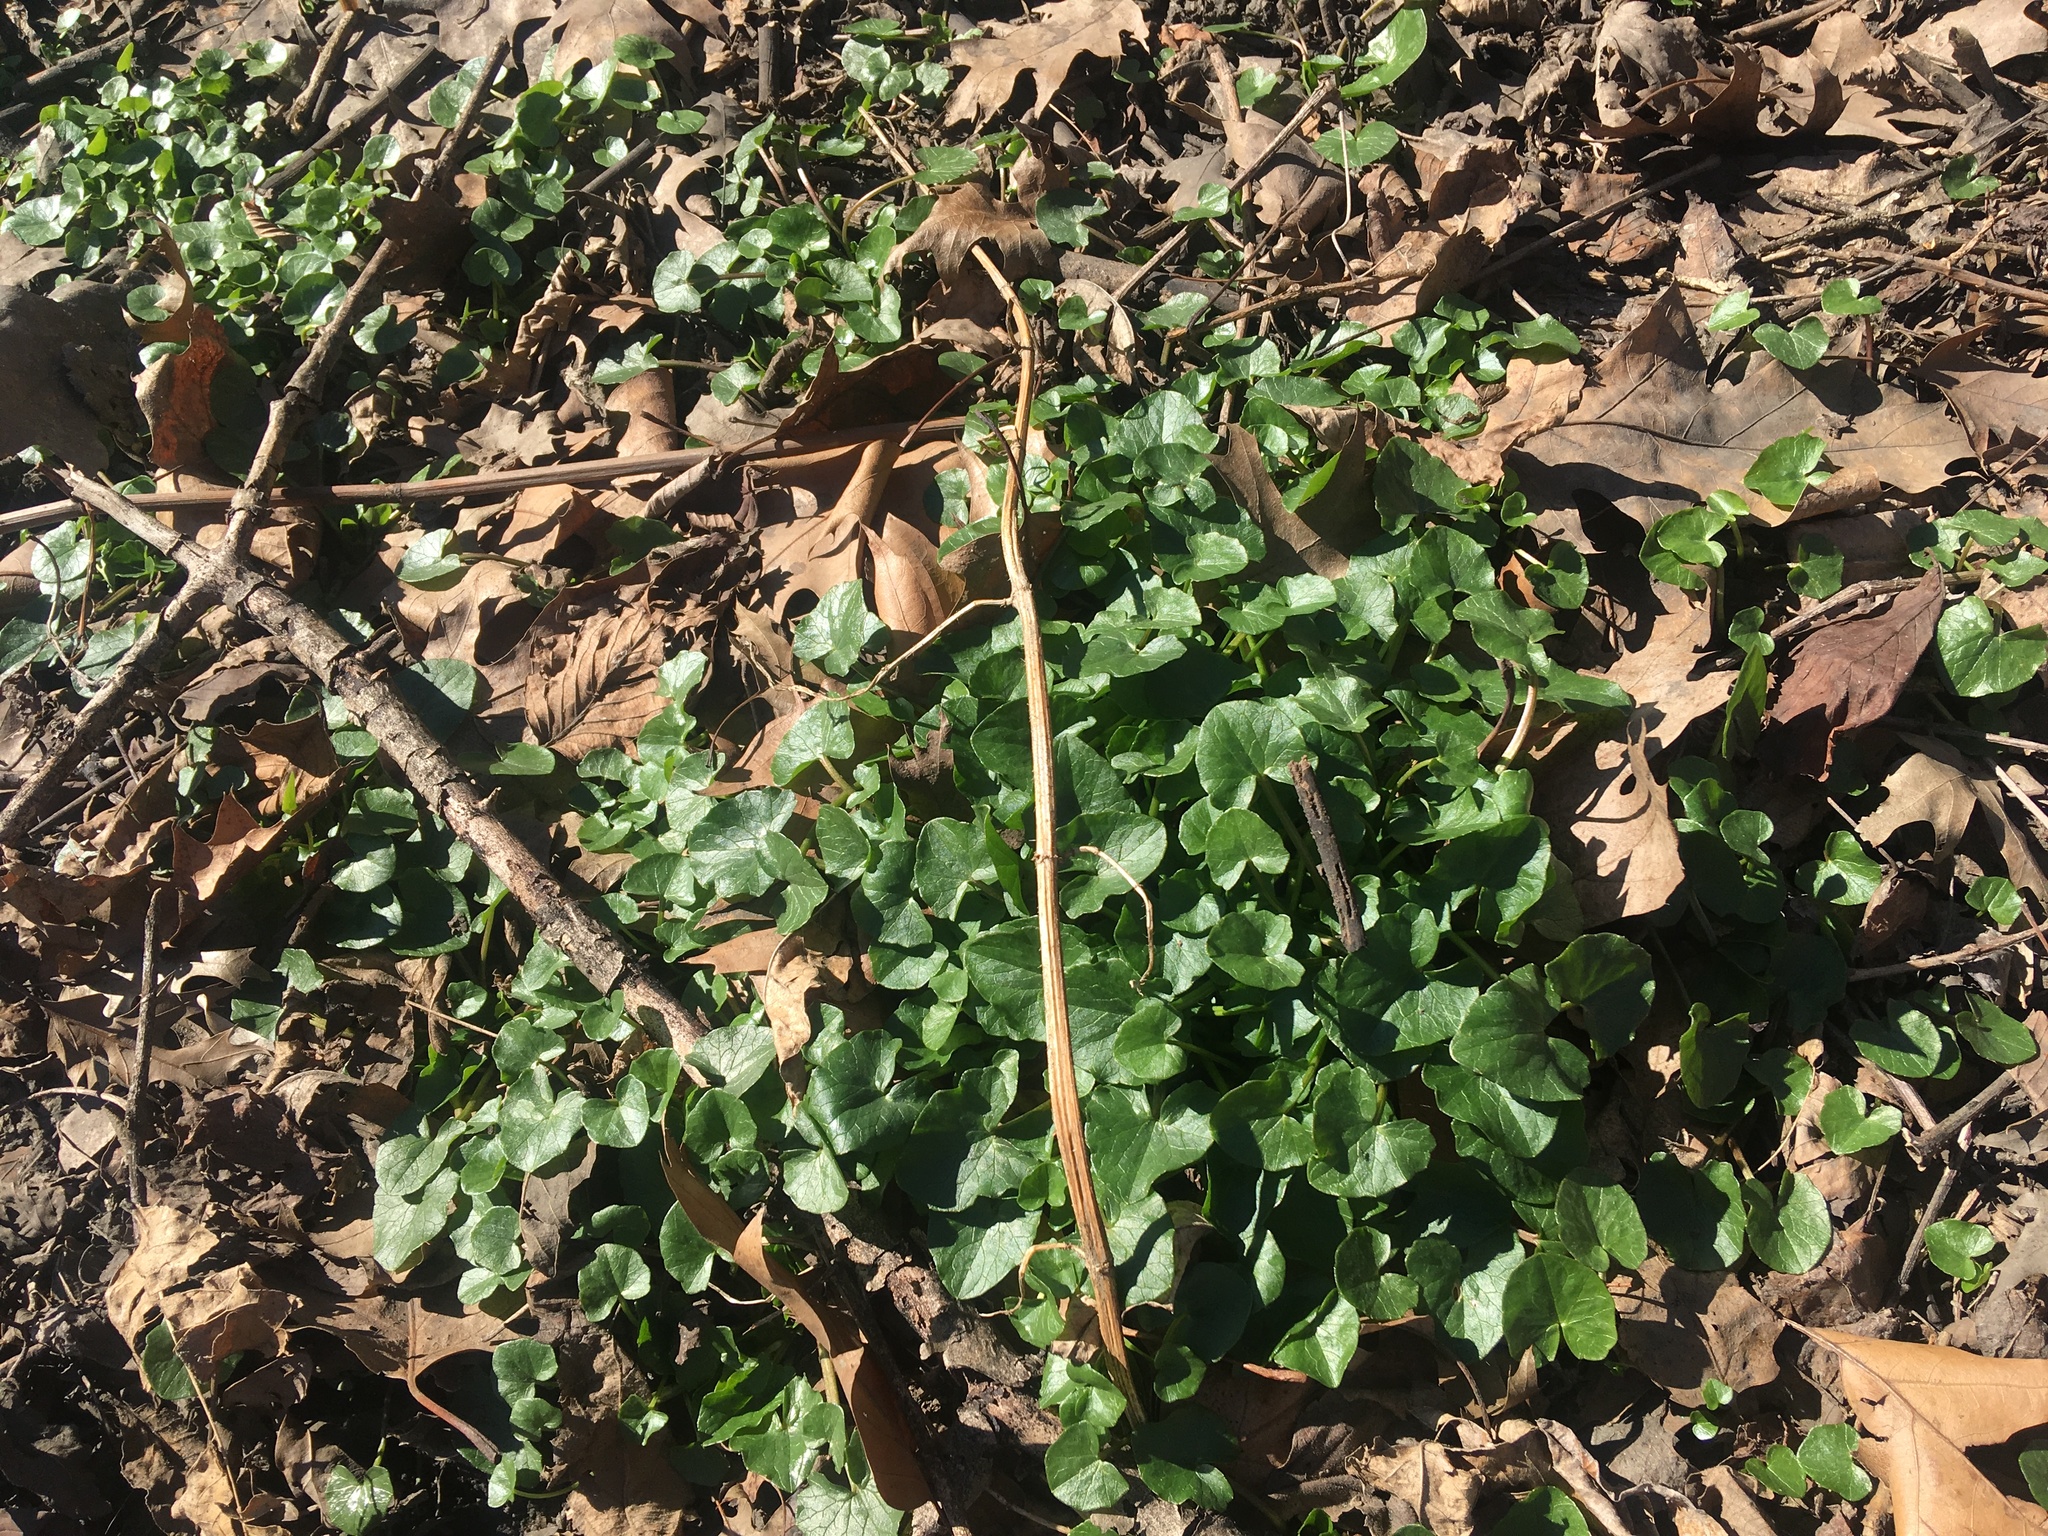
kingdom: Plantae
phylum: Tracheophyta
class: Magnoliopsida
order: Ranunculales
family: Ranunculaceae
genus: Ficaria
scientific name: Ficaria verna
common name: Lesser celandine
